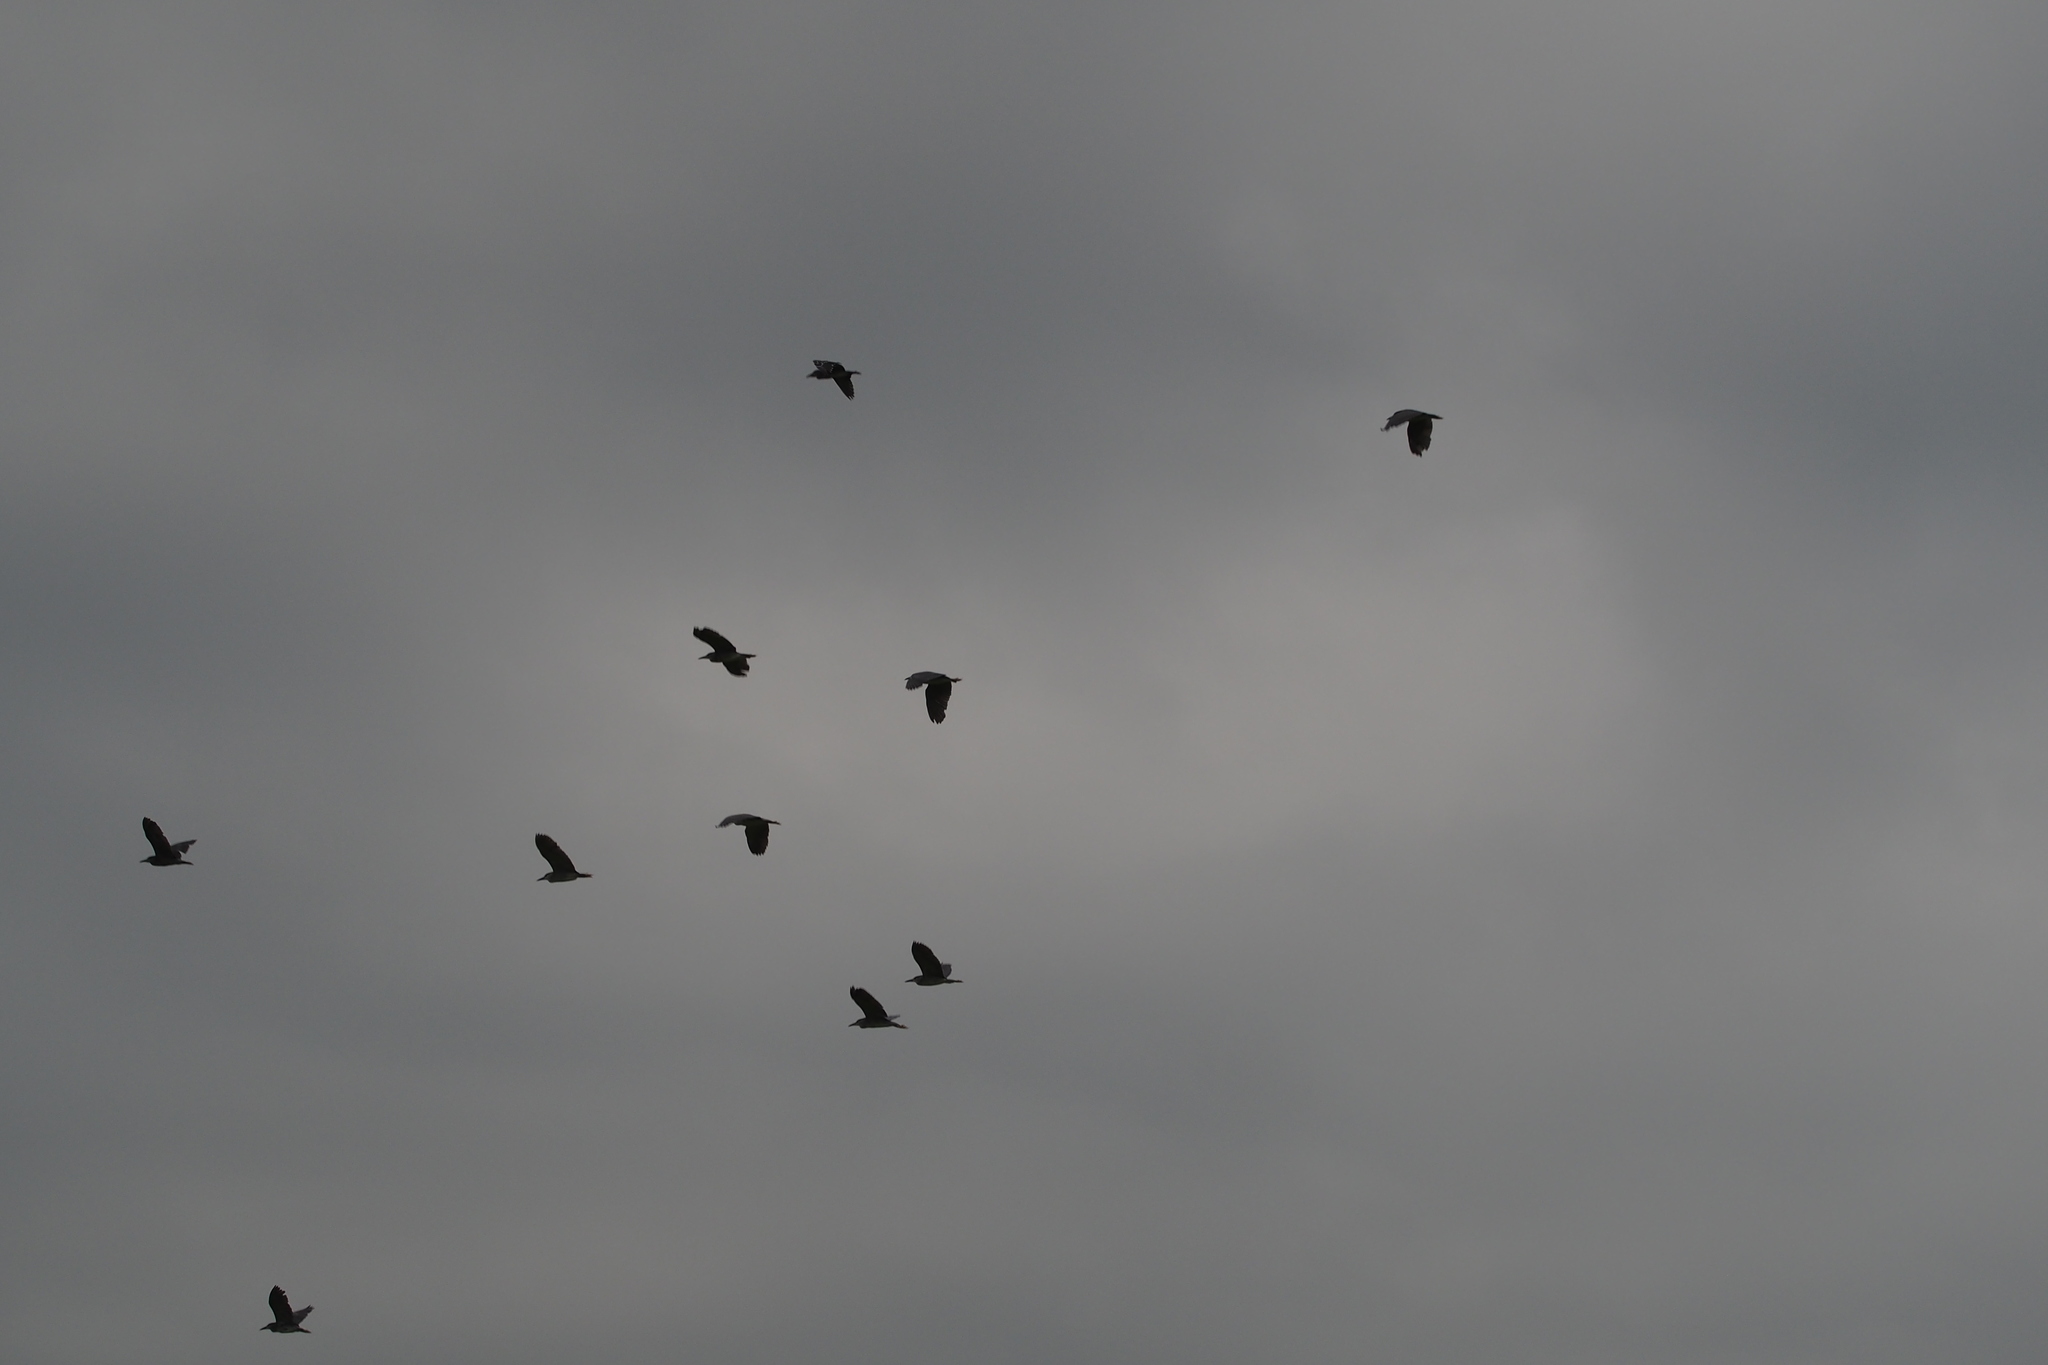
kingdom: Animalia
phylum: Chordata
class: Aves
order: Pelecaniformes
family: Ardeidae
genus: Nycticorax
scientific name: Nycticorax nycticorax
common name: Black-crowned night heron
